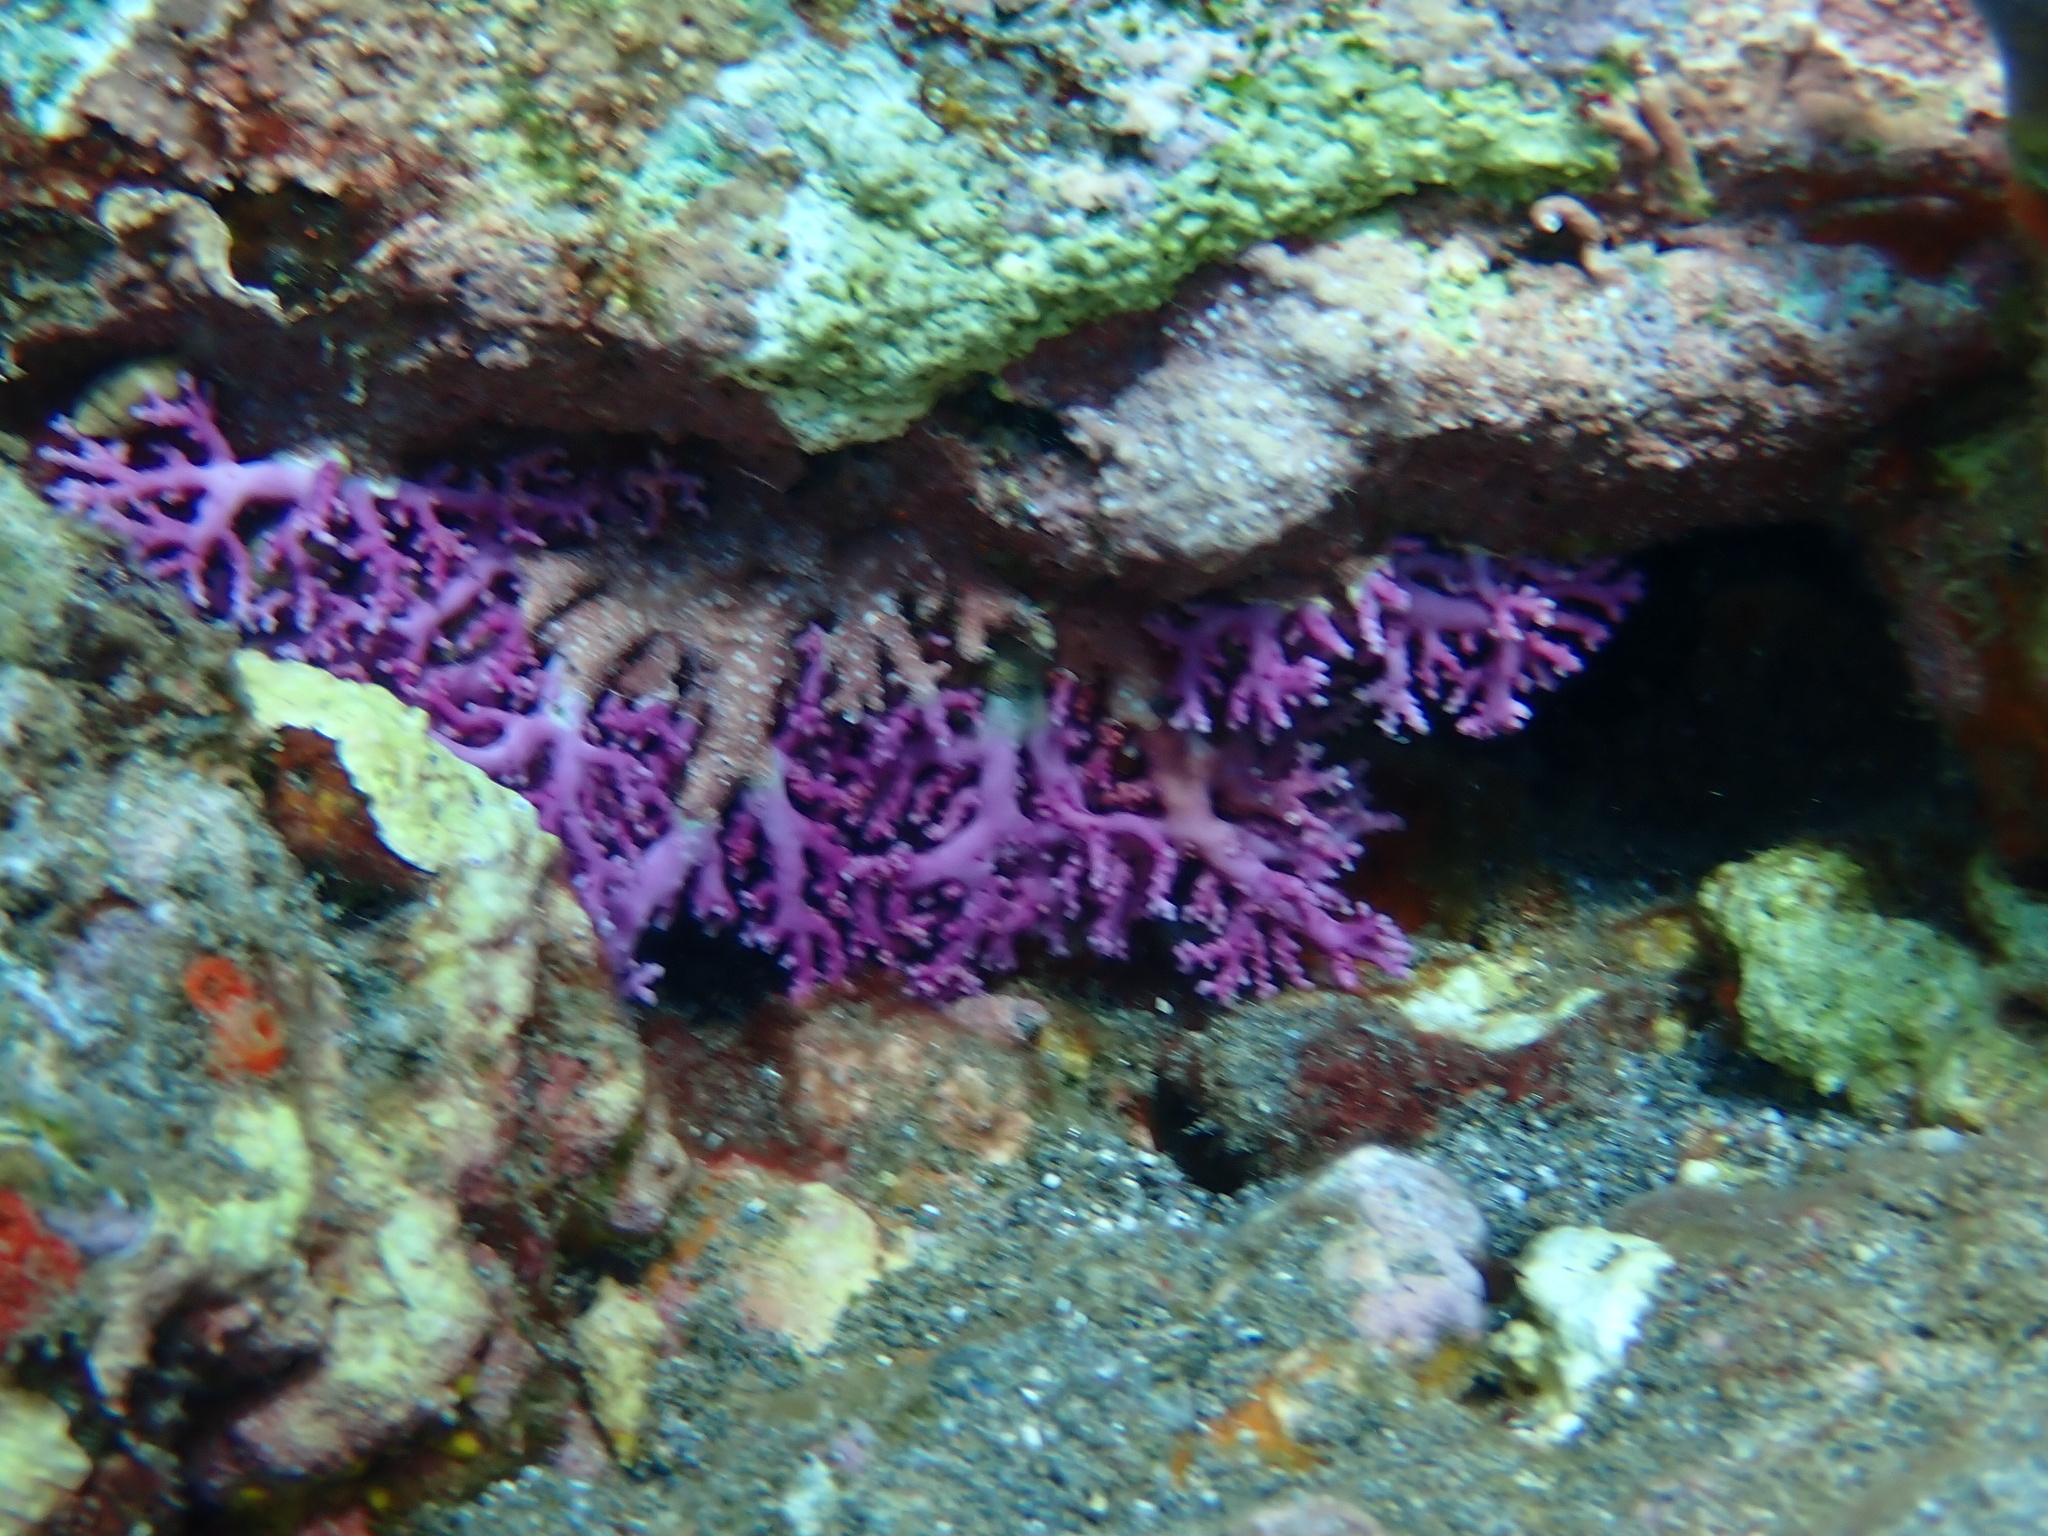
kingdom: Animalia
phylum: Cnidaria
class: Hydrozoa
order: Anthoathecata
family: Stylasteridae
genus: Stylaster
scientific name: Stylaster roseus
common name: Rose lace coral
